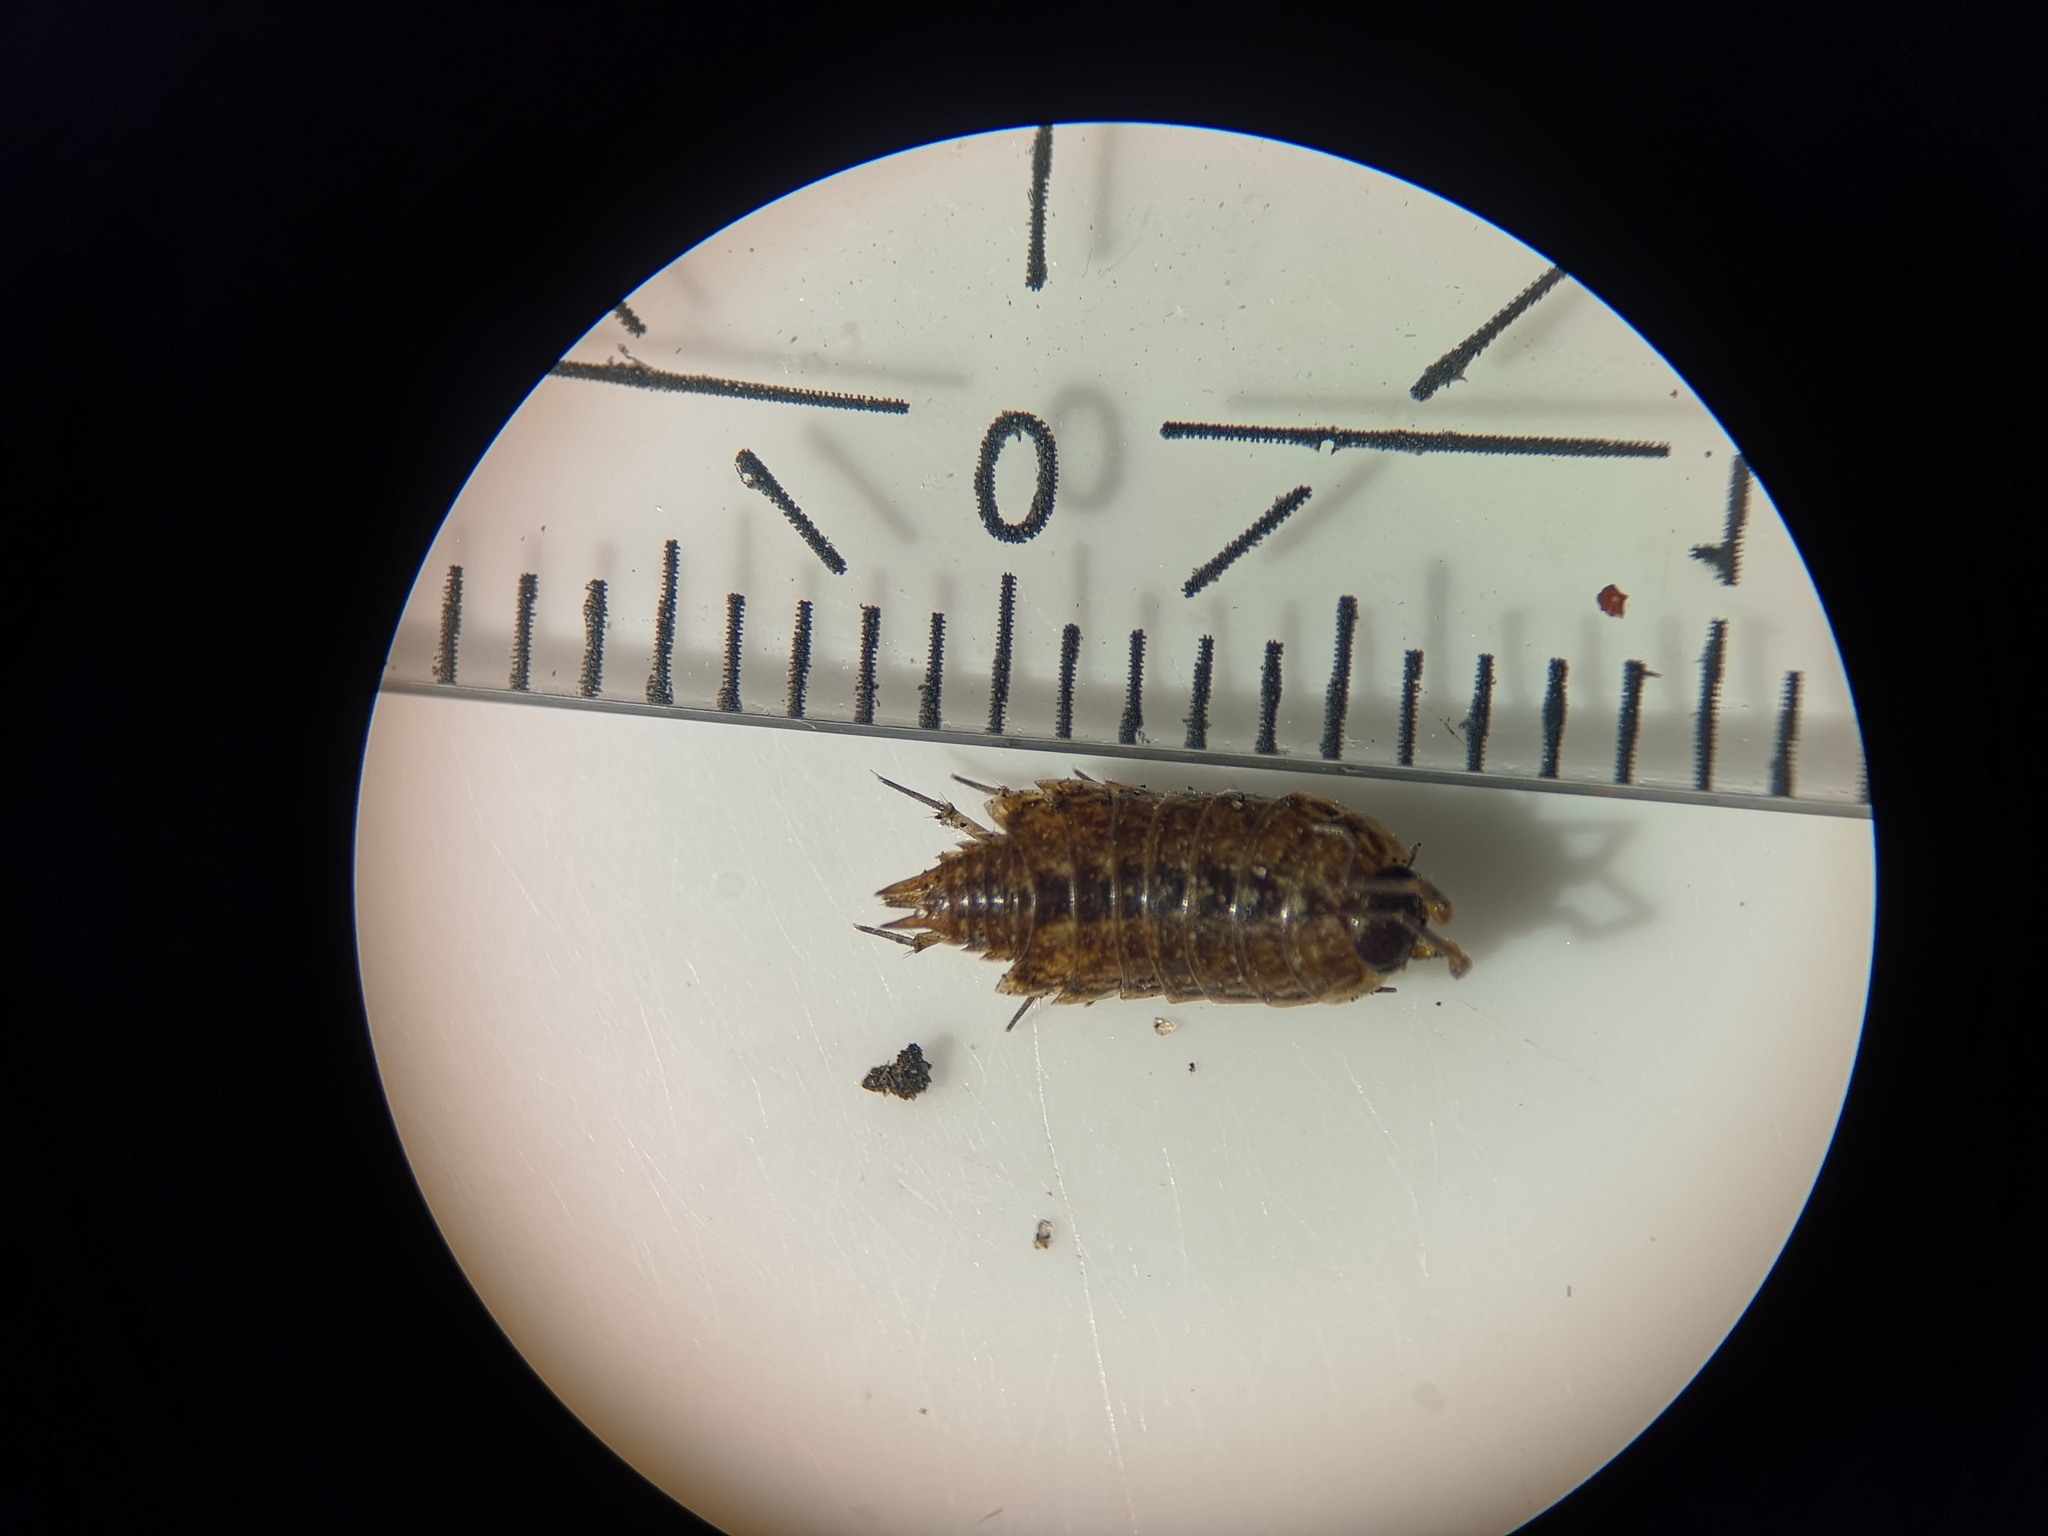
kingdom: Animalia
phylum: Arthropoda
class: Malacostraca
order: Isopoda
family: Philosciidae
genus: Philoscia
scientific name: Philoscia muscorum
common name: Common striped woodlouse
